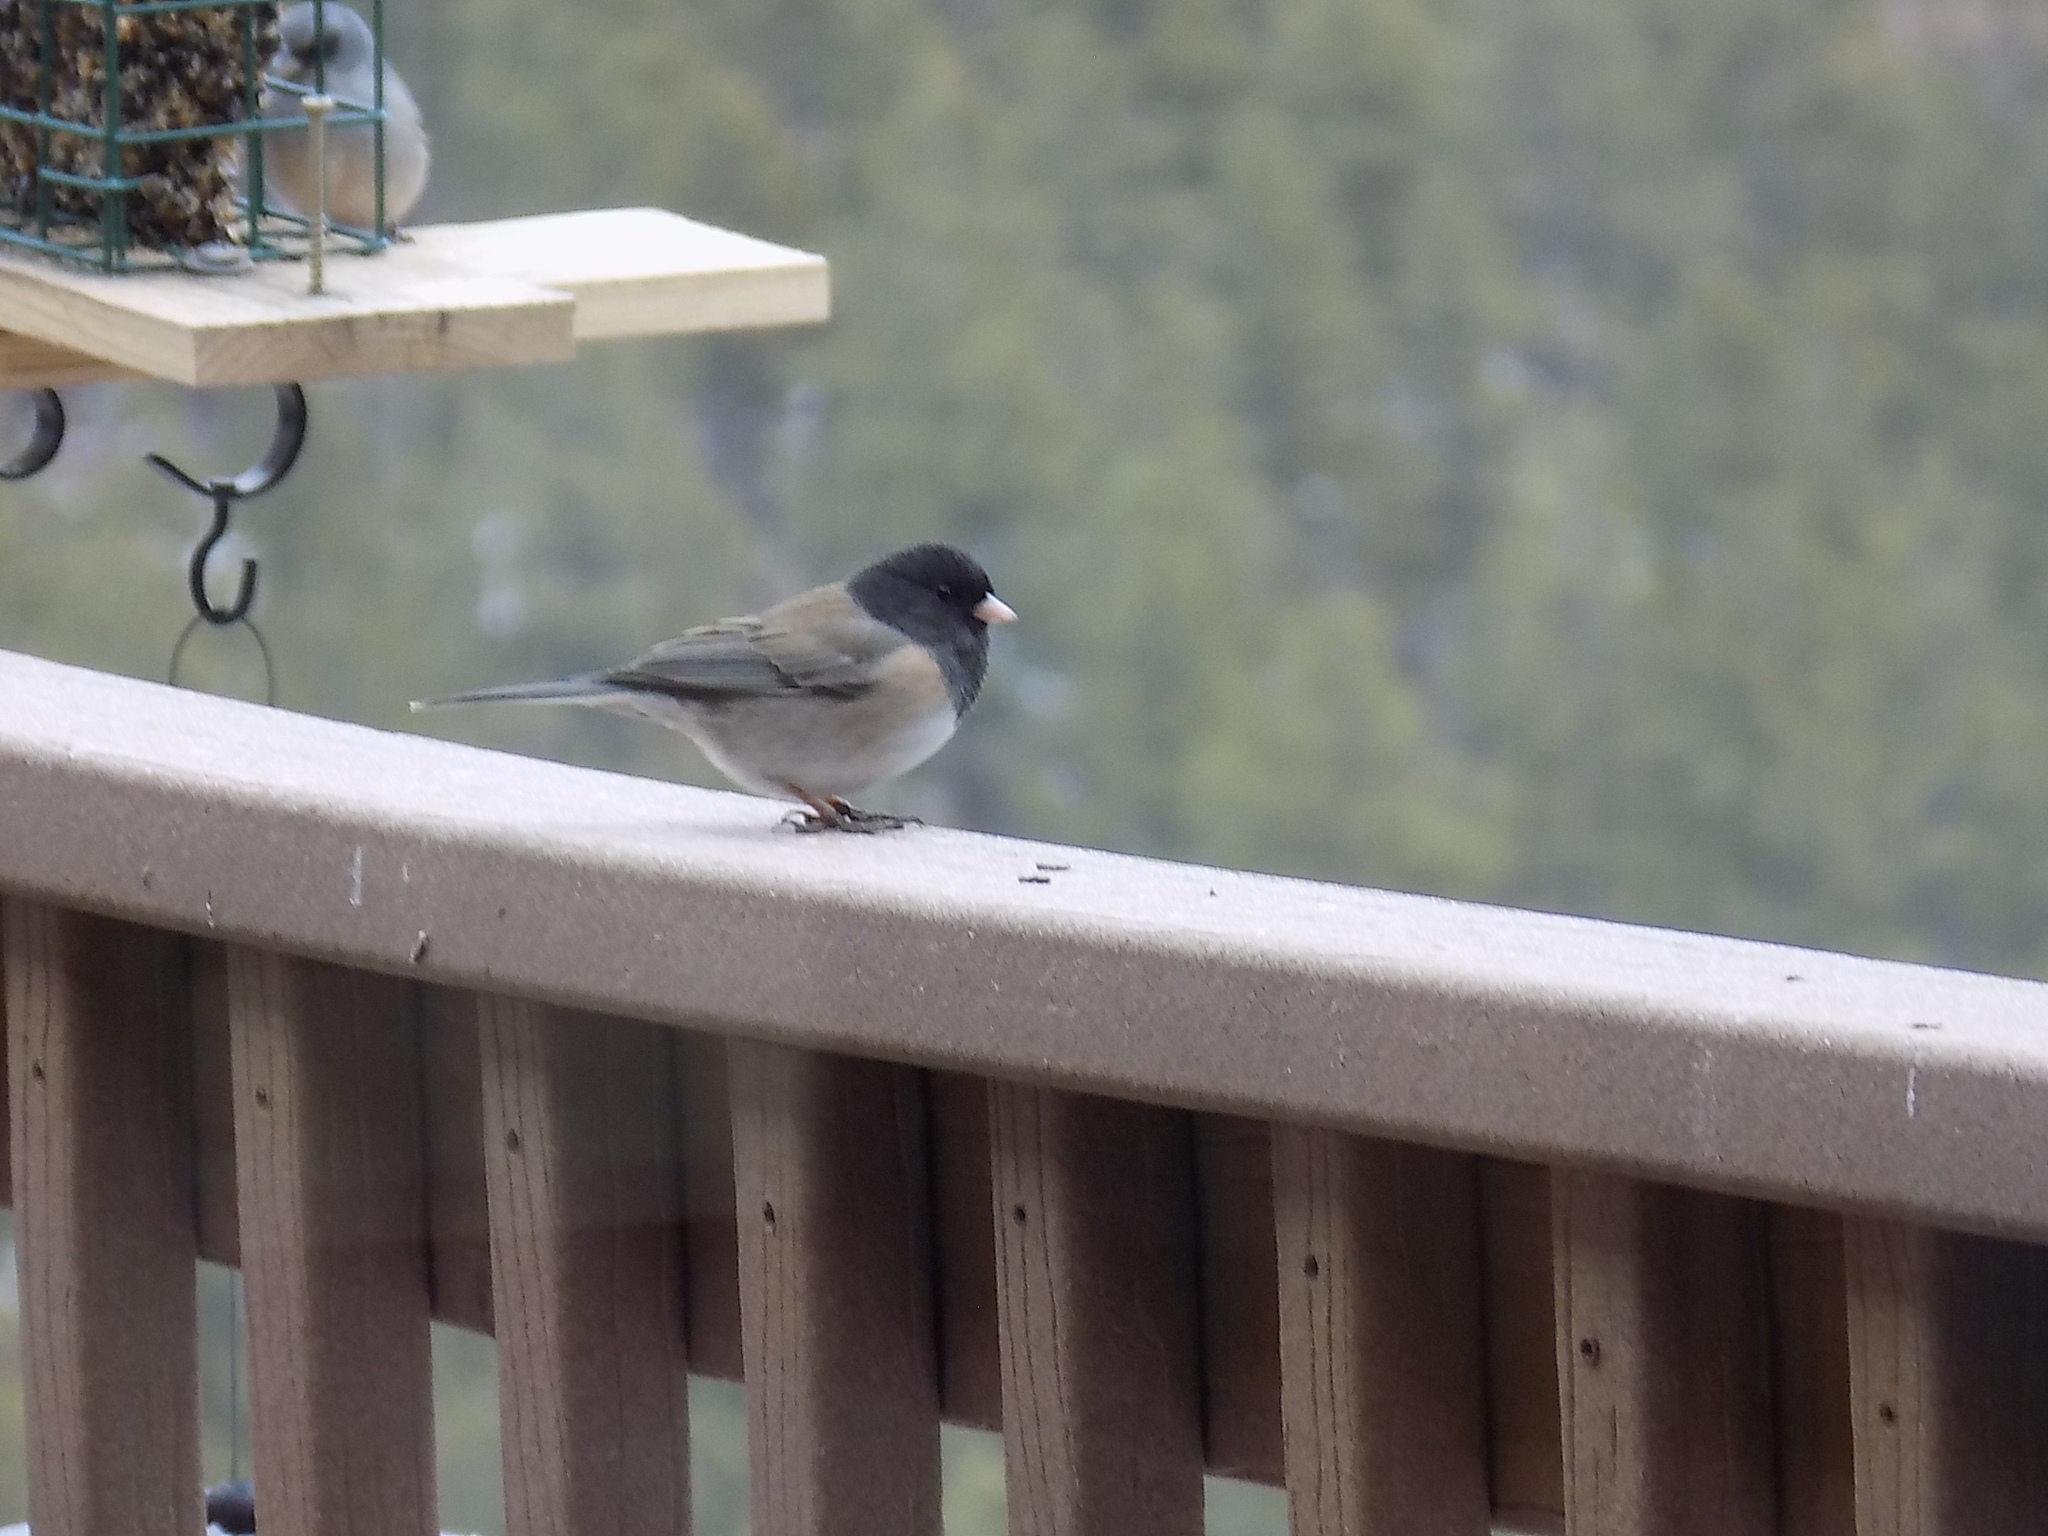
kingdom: Animalia
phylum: Chordata
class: Aves
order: Passeriformes
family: Passerellidae
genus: Junco
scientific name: Junco hyemalis
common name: Dark-eyed junco
